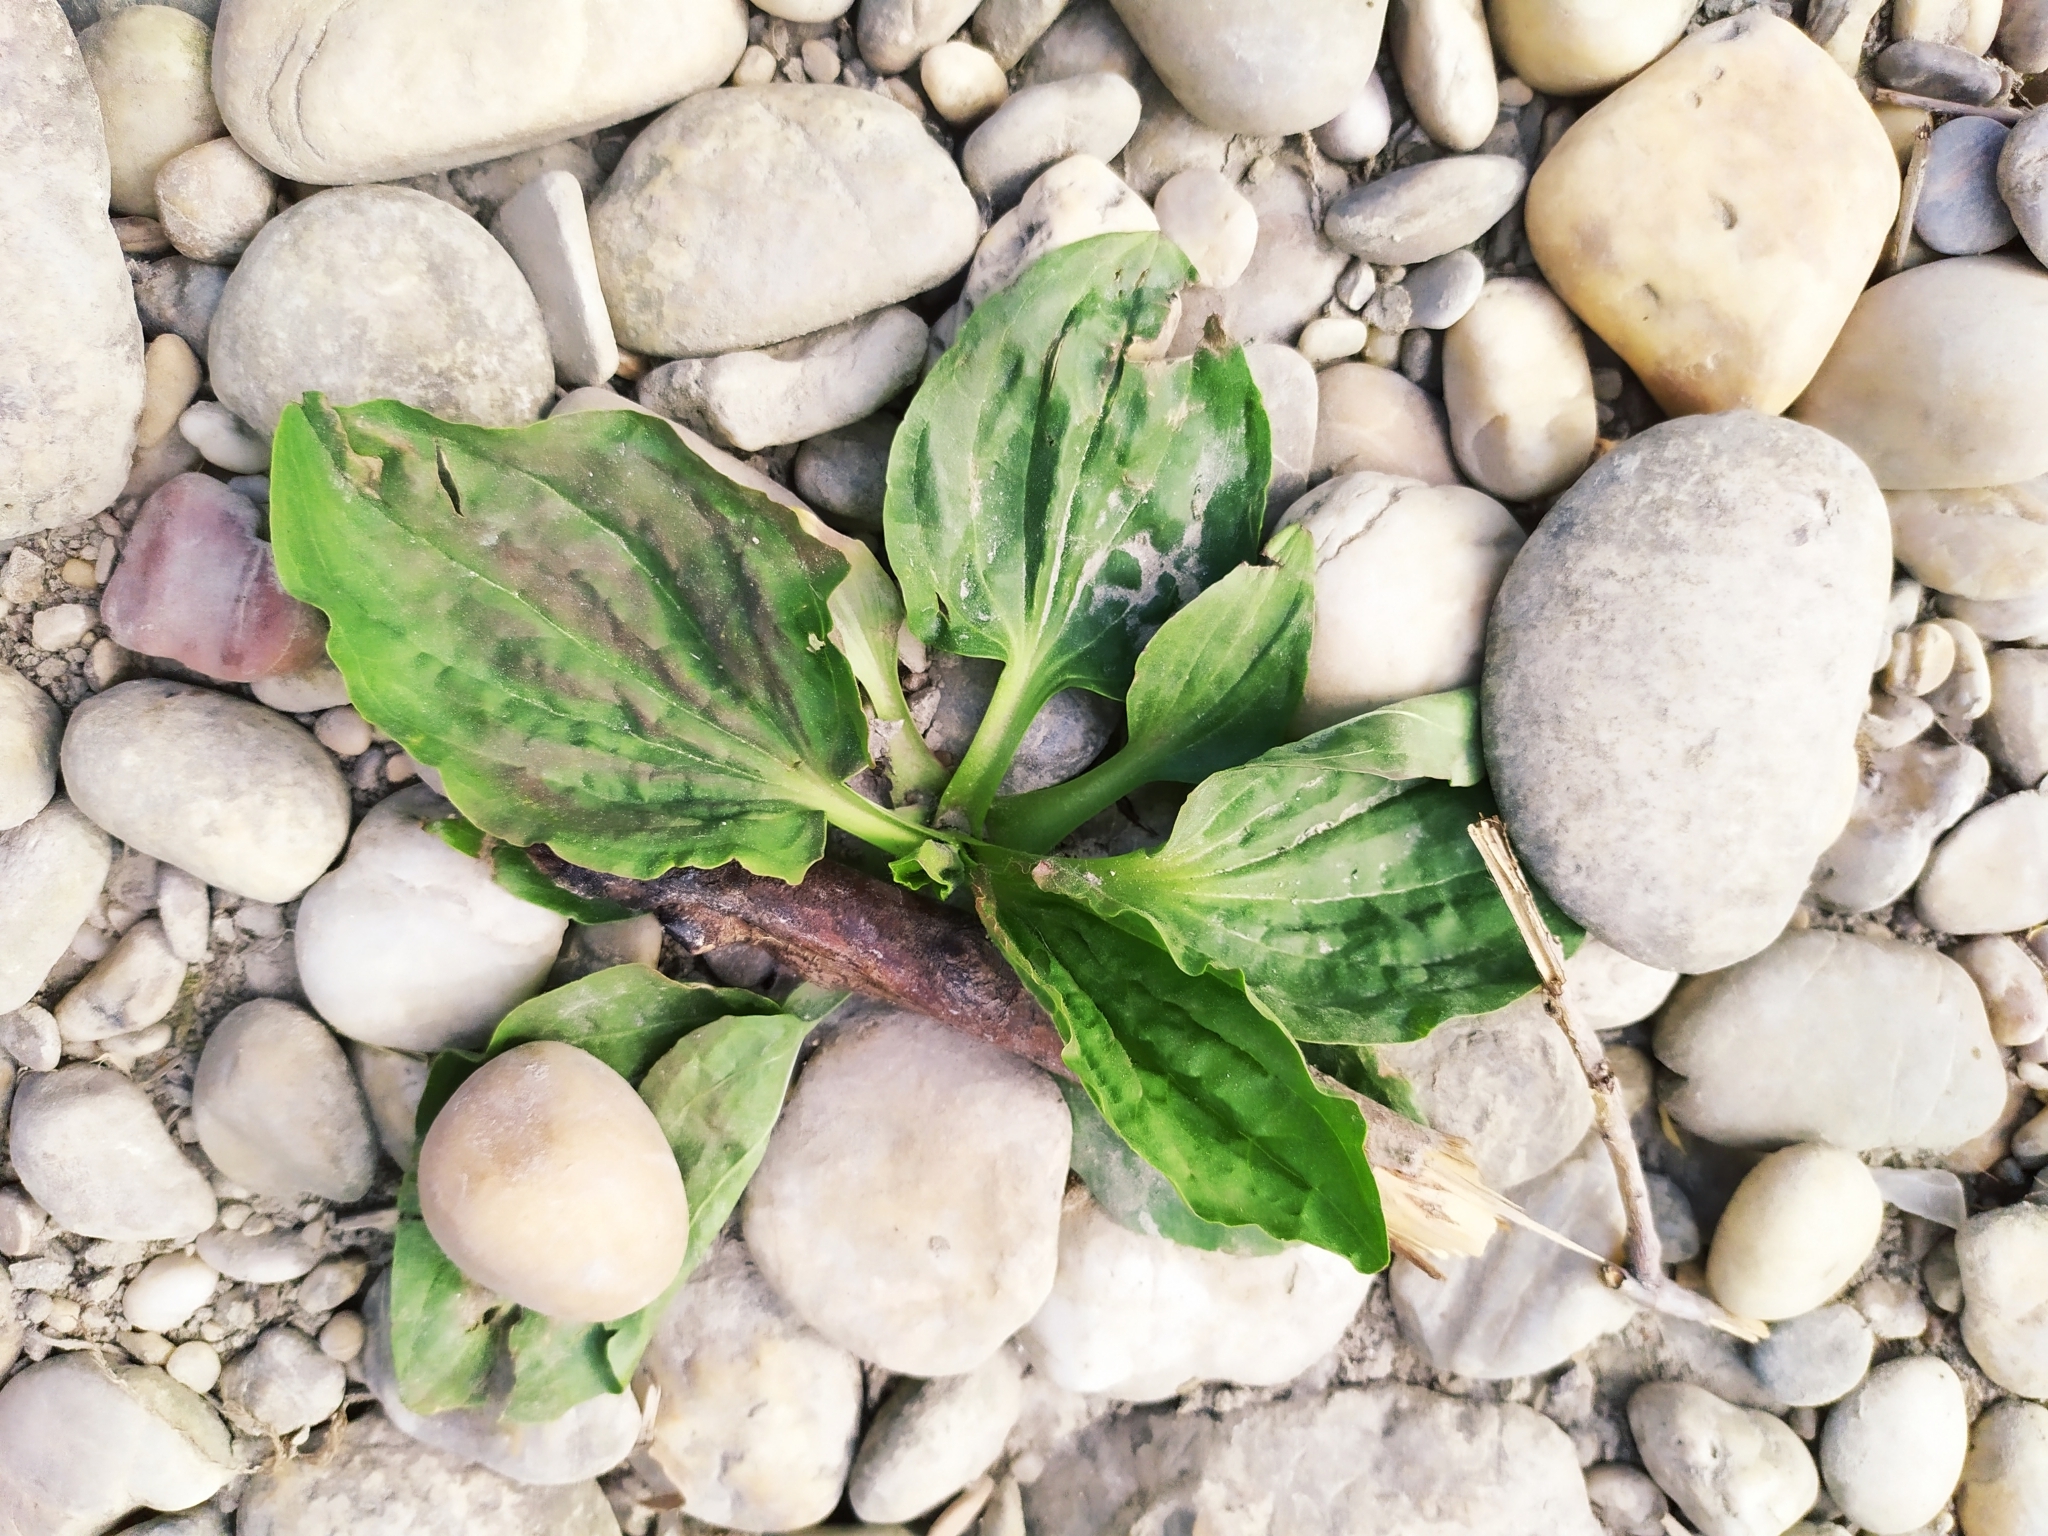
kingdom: Plantae
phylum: Tracheophyta
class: Magnoliopsida
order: Lamiales
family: Plantaginaceae
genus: Plantago
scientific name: Plantago major
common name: Common plantain
